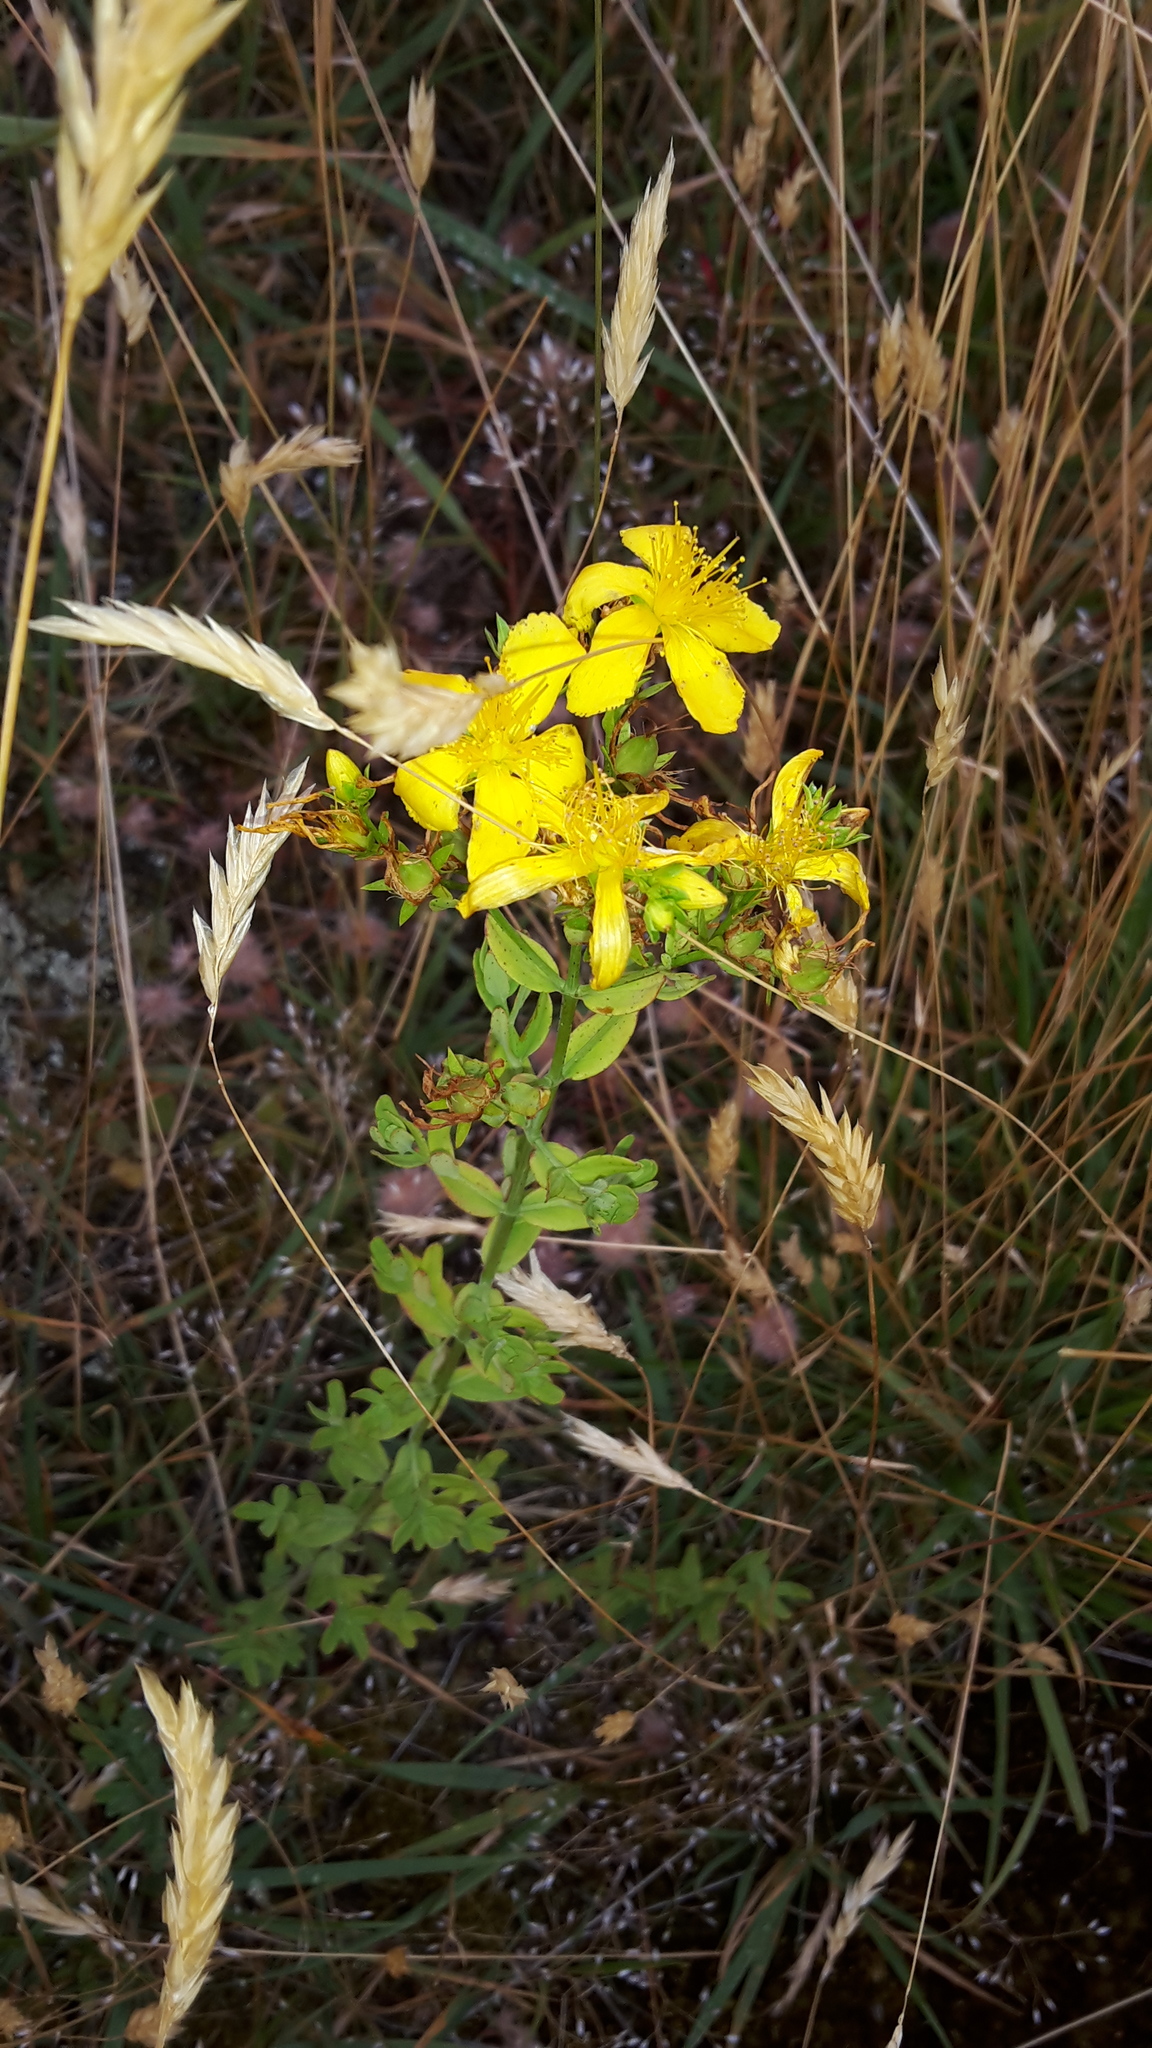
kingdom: Plantae
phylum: Tracheophyta
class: Magnoliopsida
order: Malpighiales
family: Hypericaceae
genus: Hypericum
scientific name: Hypericum perforatum
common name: Common st. johnswort
